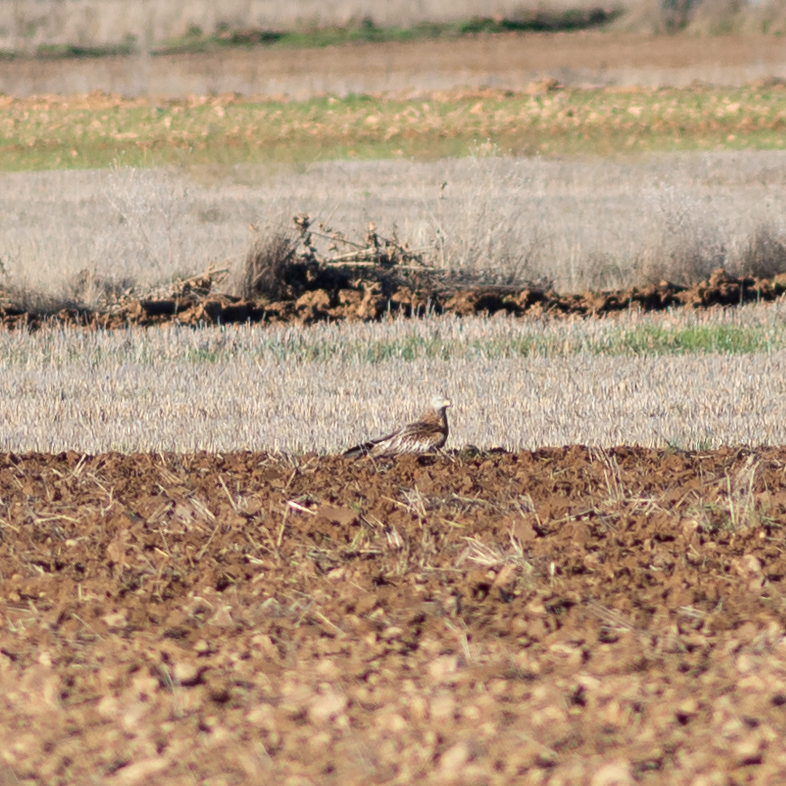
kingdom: Animalia
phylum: Chordata
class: Aves
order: Accipitriformes
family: Accipitridae
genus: Milvus
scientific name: Milvus milvus
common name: Red kite
